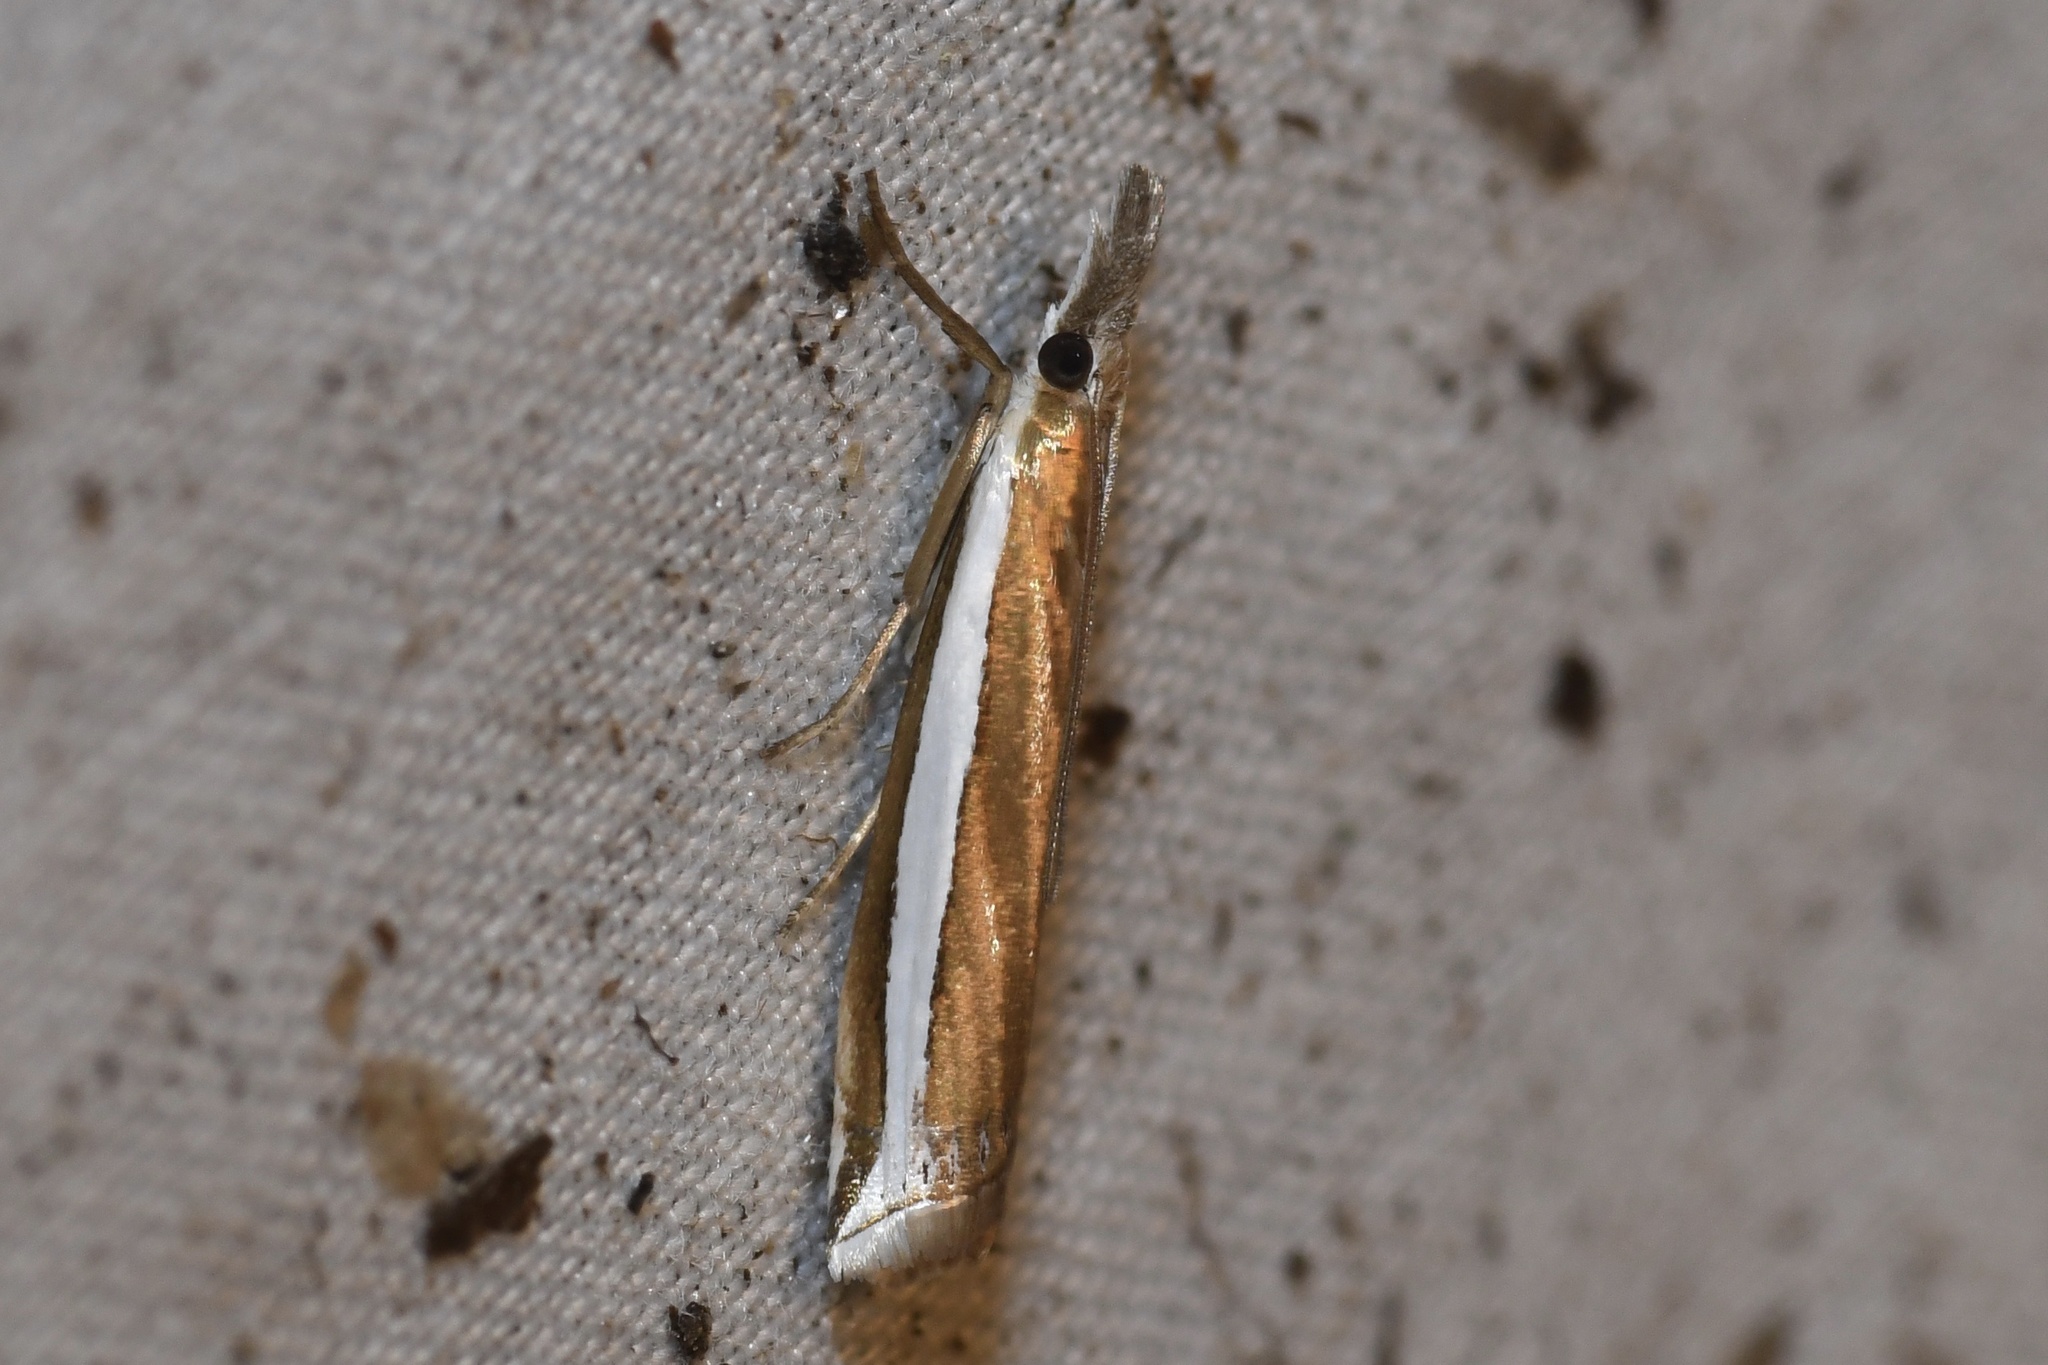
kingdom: Animalia
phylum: Arthropoda
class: Insecta
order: Lepidoptera
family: Crambidae
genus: Crambus
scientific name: Crambus unistriatellus
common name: Wide-stripe grass-veneer moth
